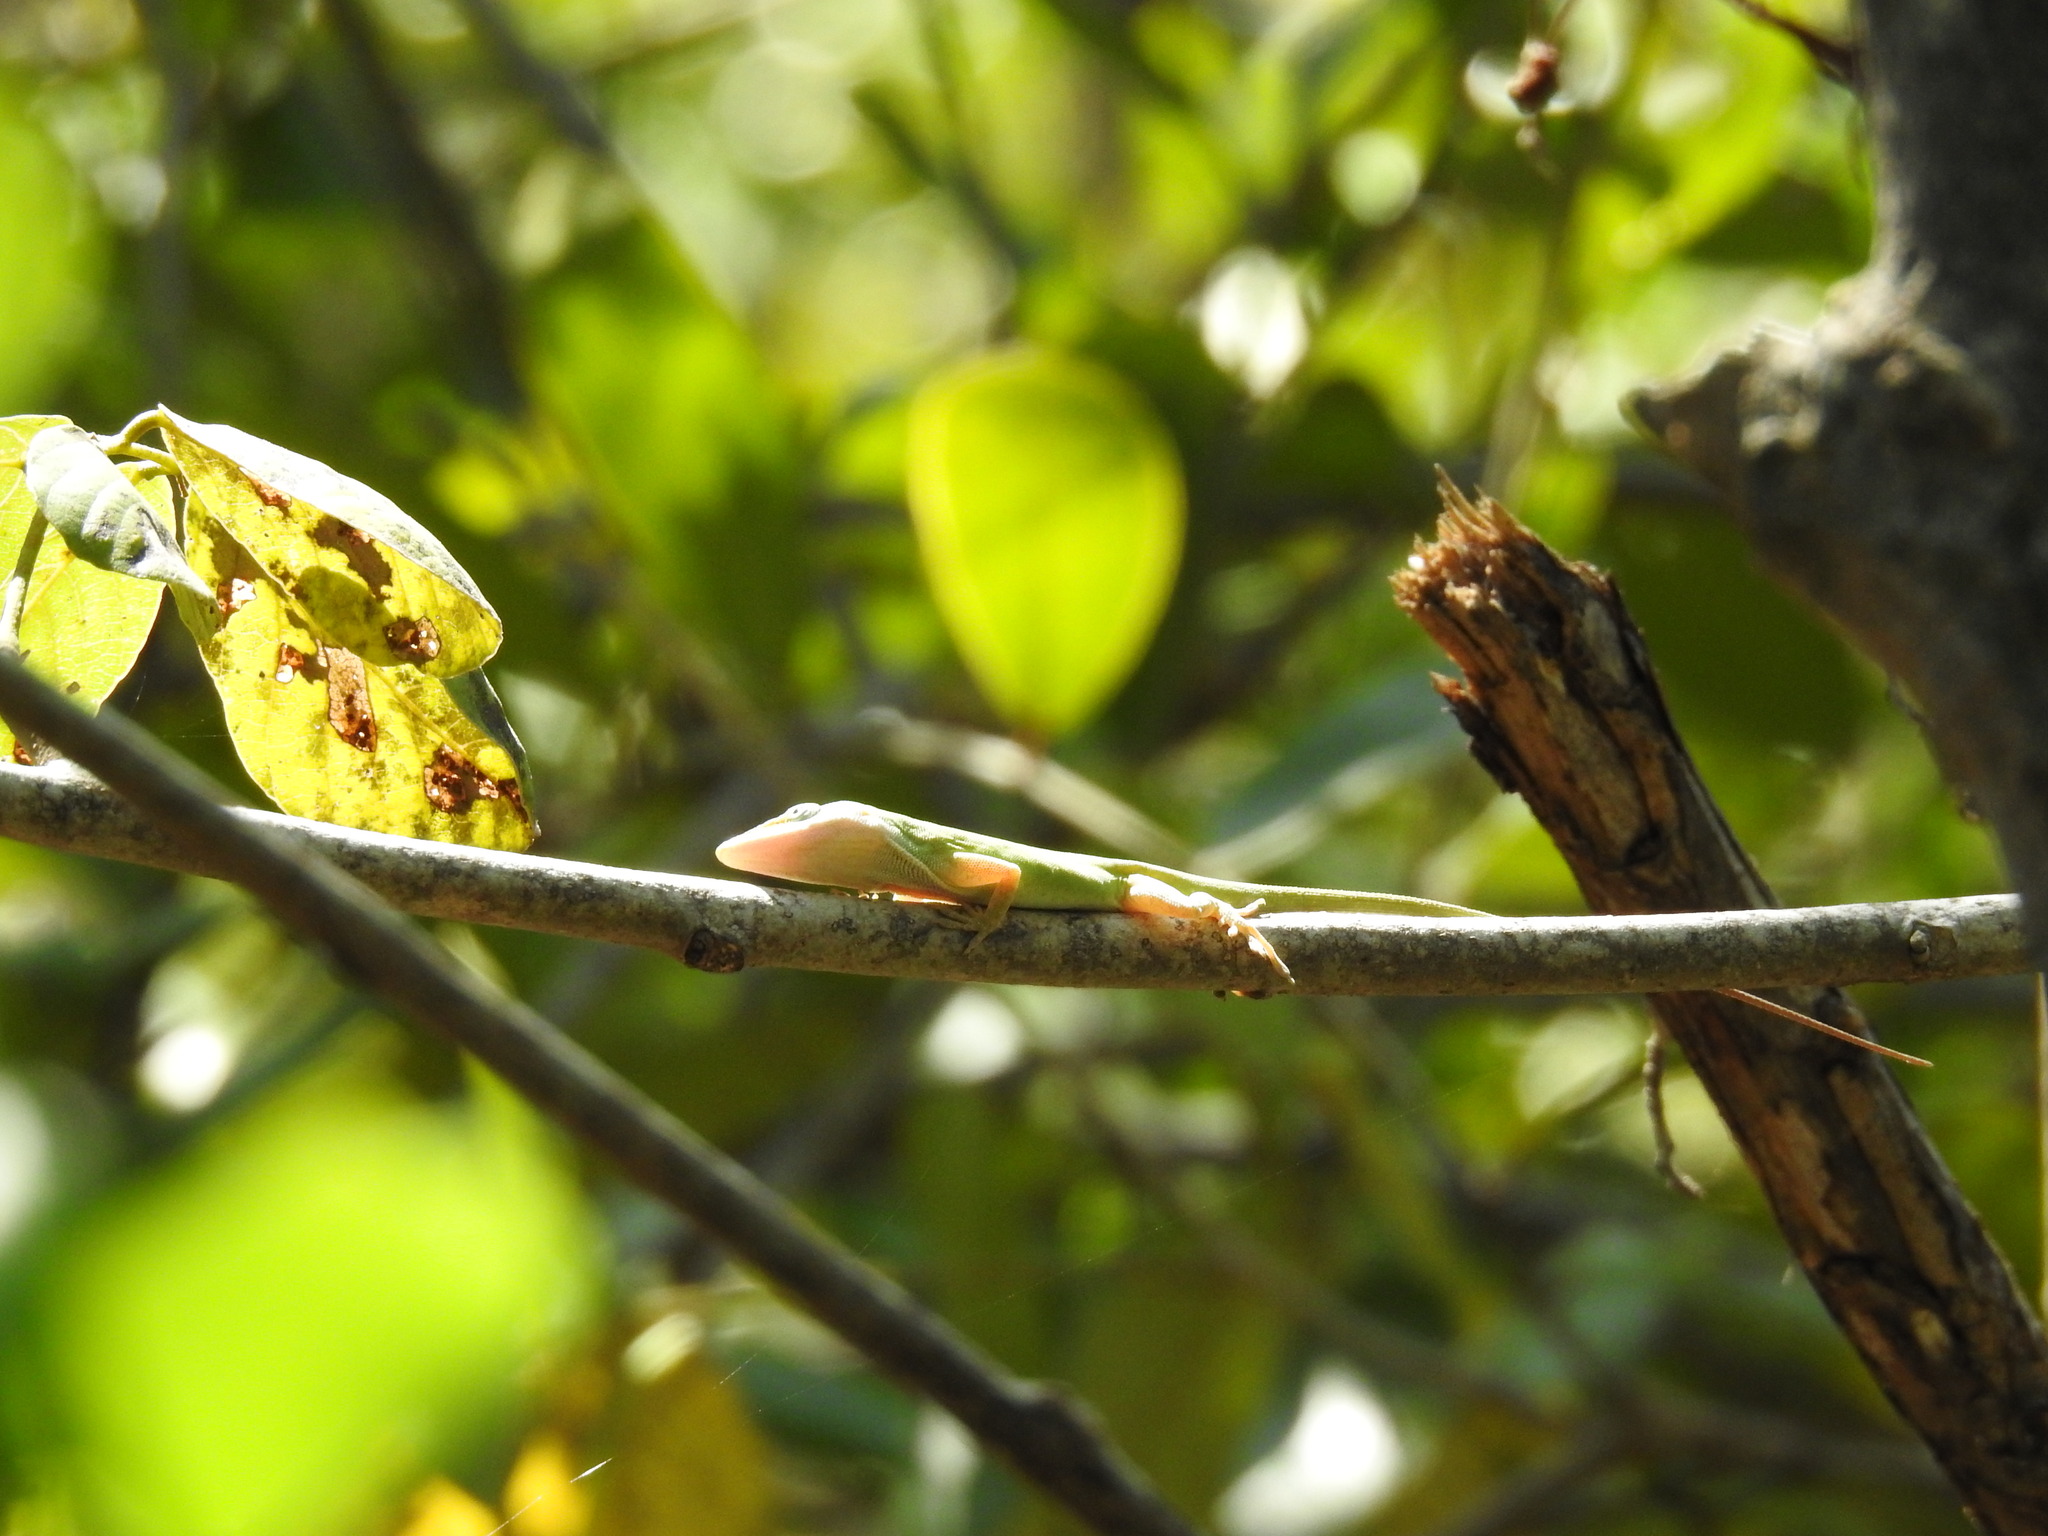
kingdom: Animalia
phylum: Chordata
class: Squamata
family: Dactyloidae
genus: Anolis
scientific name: Anolis carolinensis
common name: Green anole
